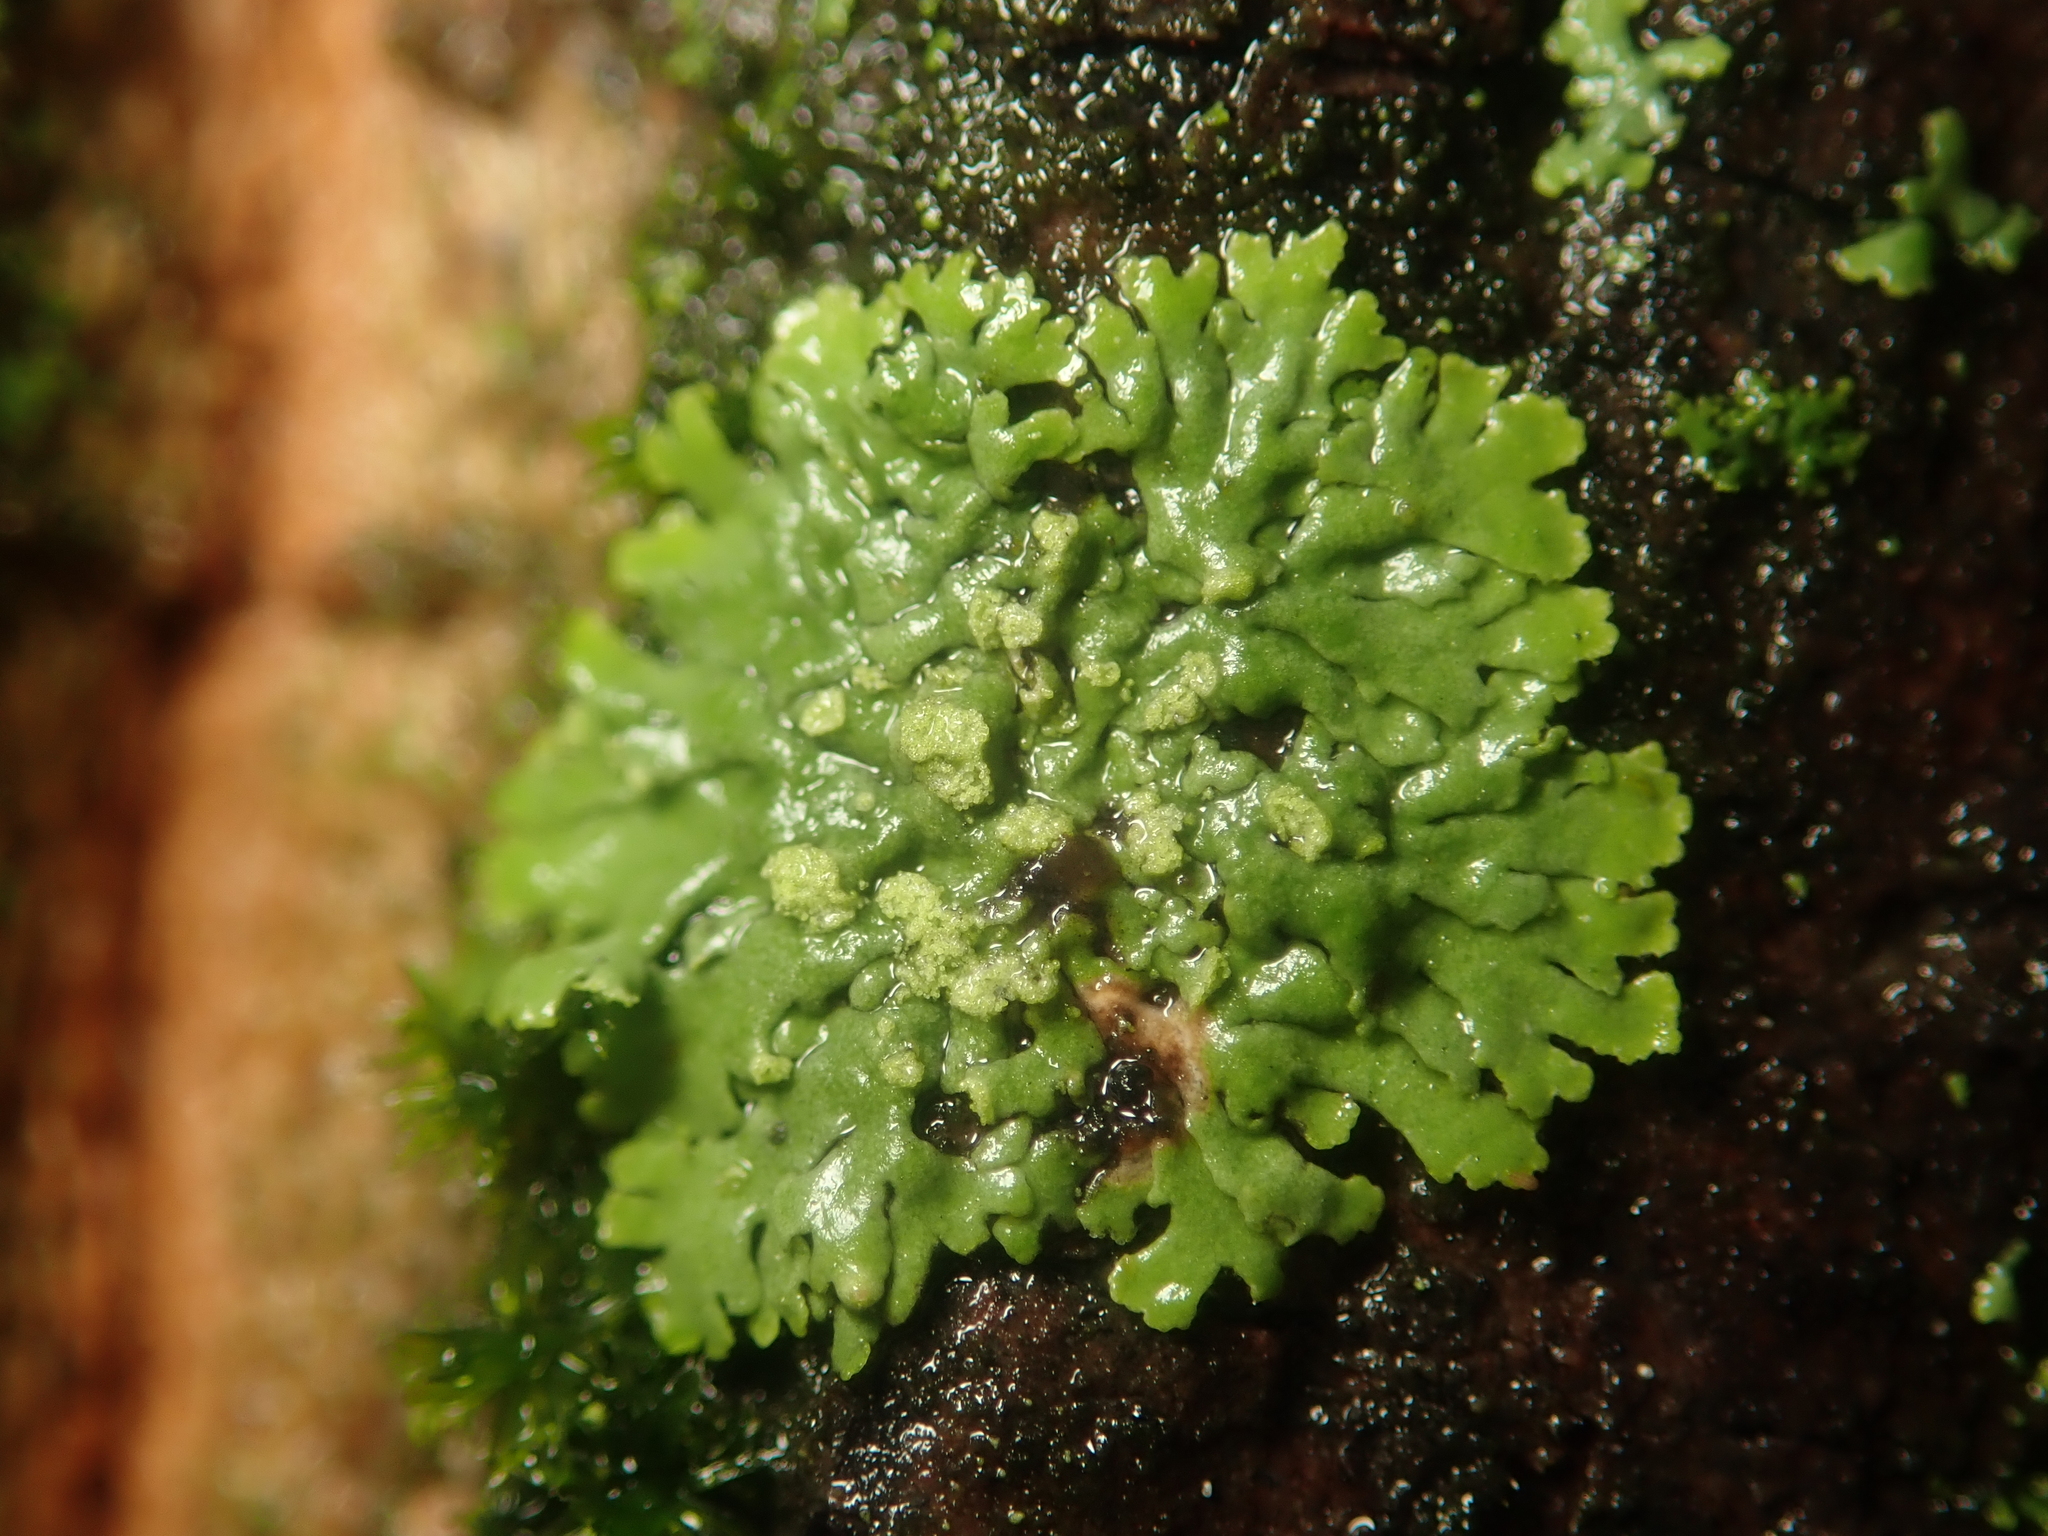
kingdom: Fungi
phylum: Ascomycota
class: Lecanoromycetes
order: Caliciales
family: Physciaceae
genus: Phaeophyscia
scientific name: Phaeophyscia orbicularis
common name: Mealy shadow lichen
